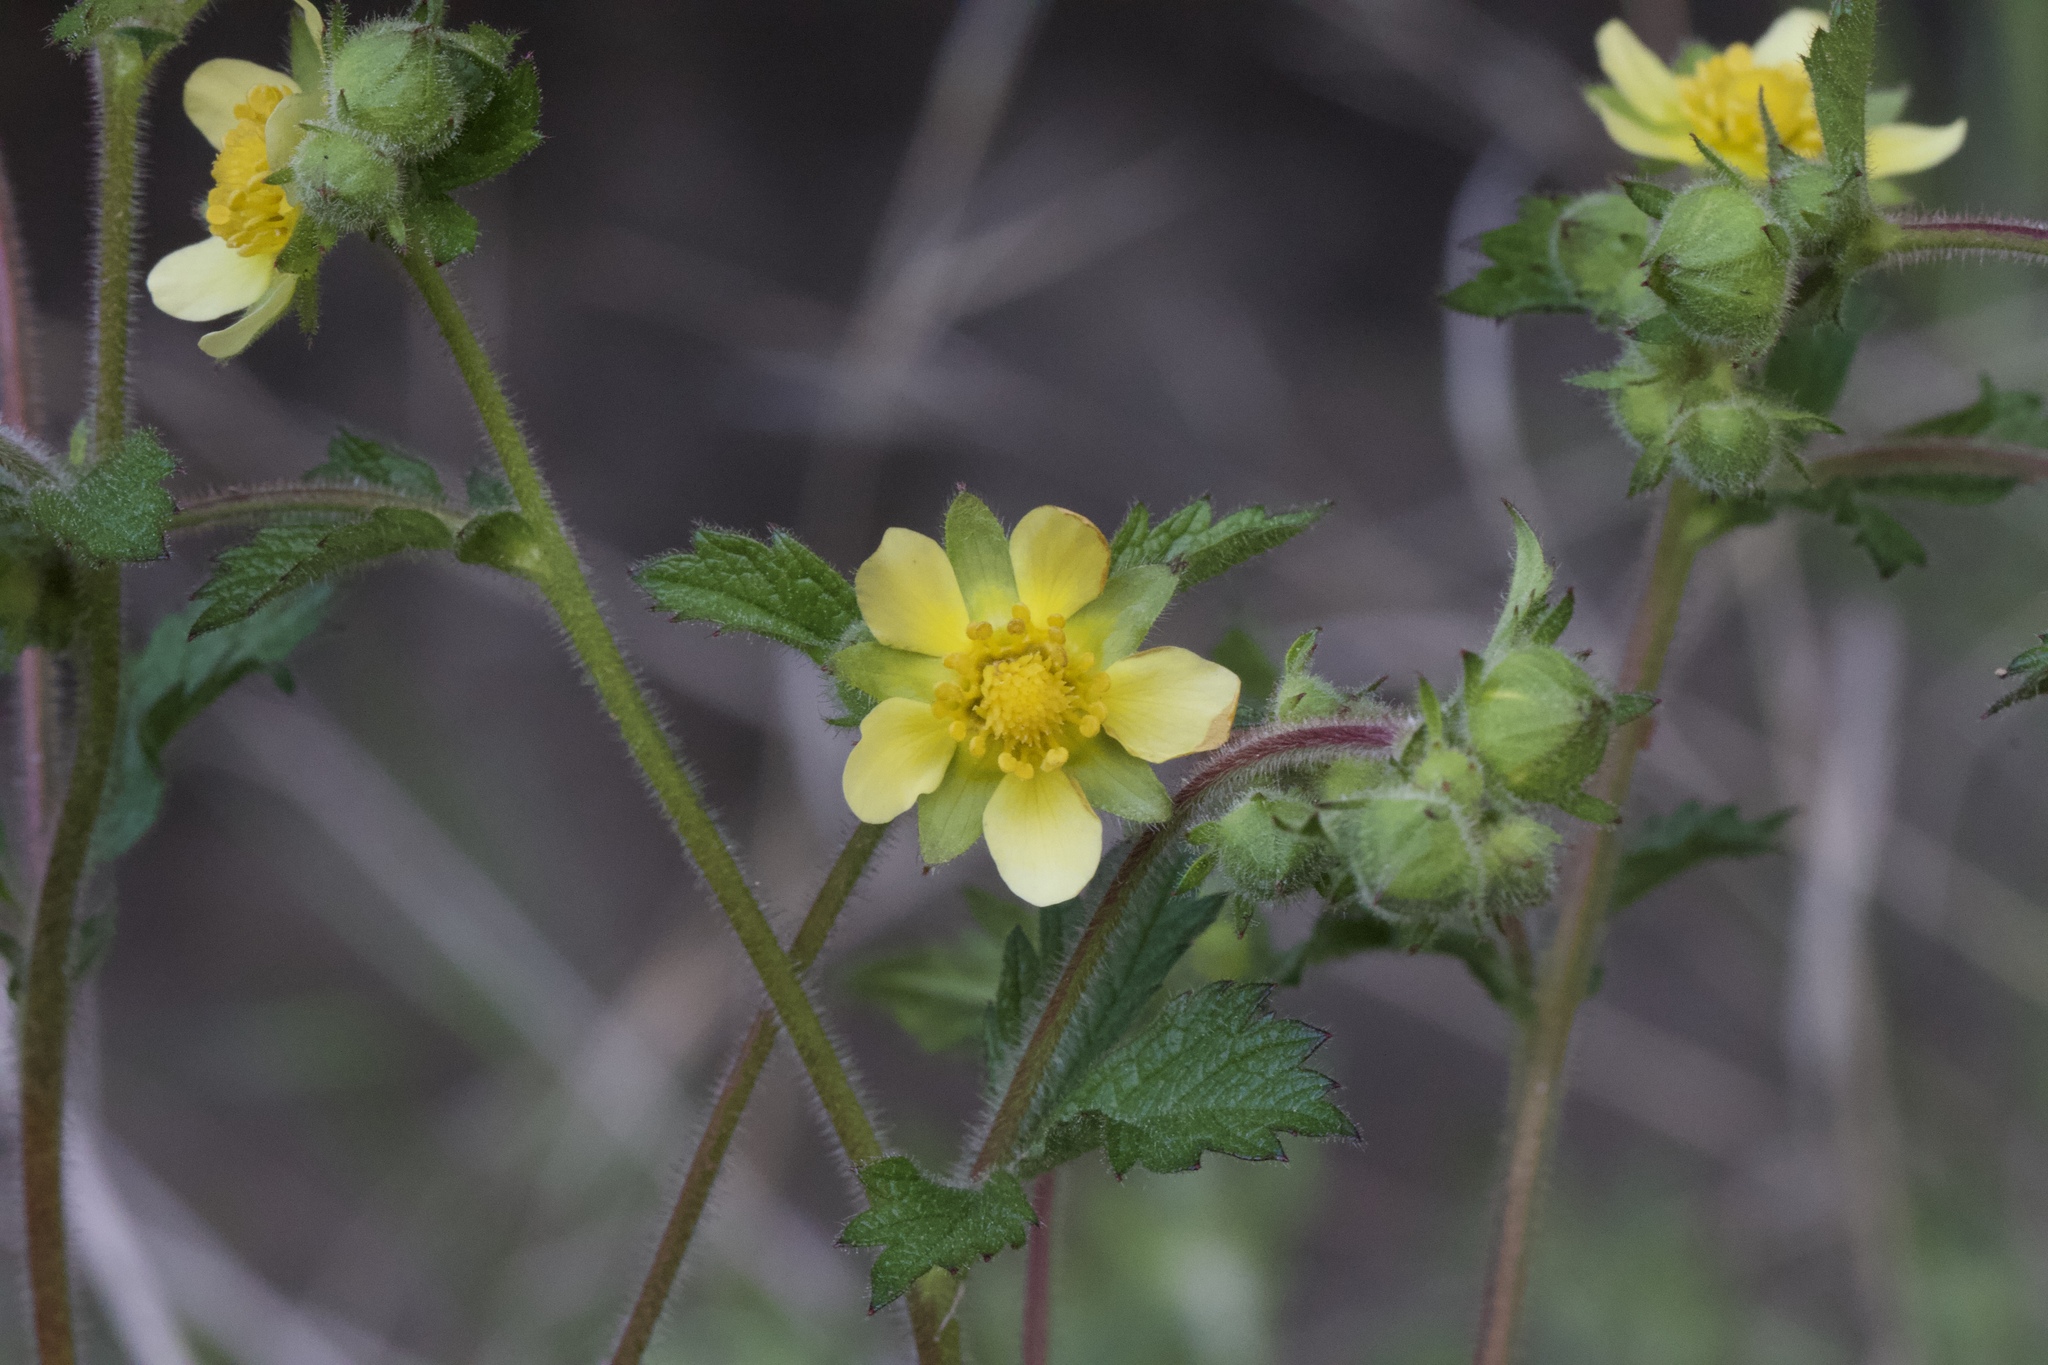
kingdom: Plantae
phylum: Tracheophyta
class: Magnoliopsida
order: Rosales
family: Rosaceae
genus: Drymocallis
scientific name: Drymocallis glandulosa
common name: Sticky cinquefoil
